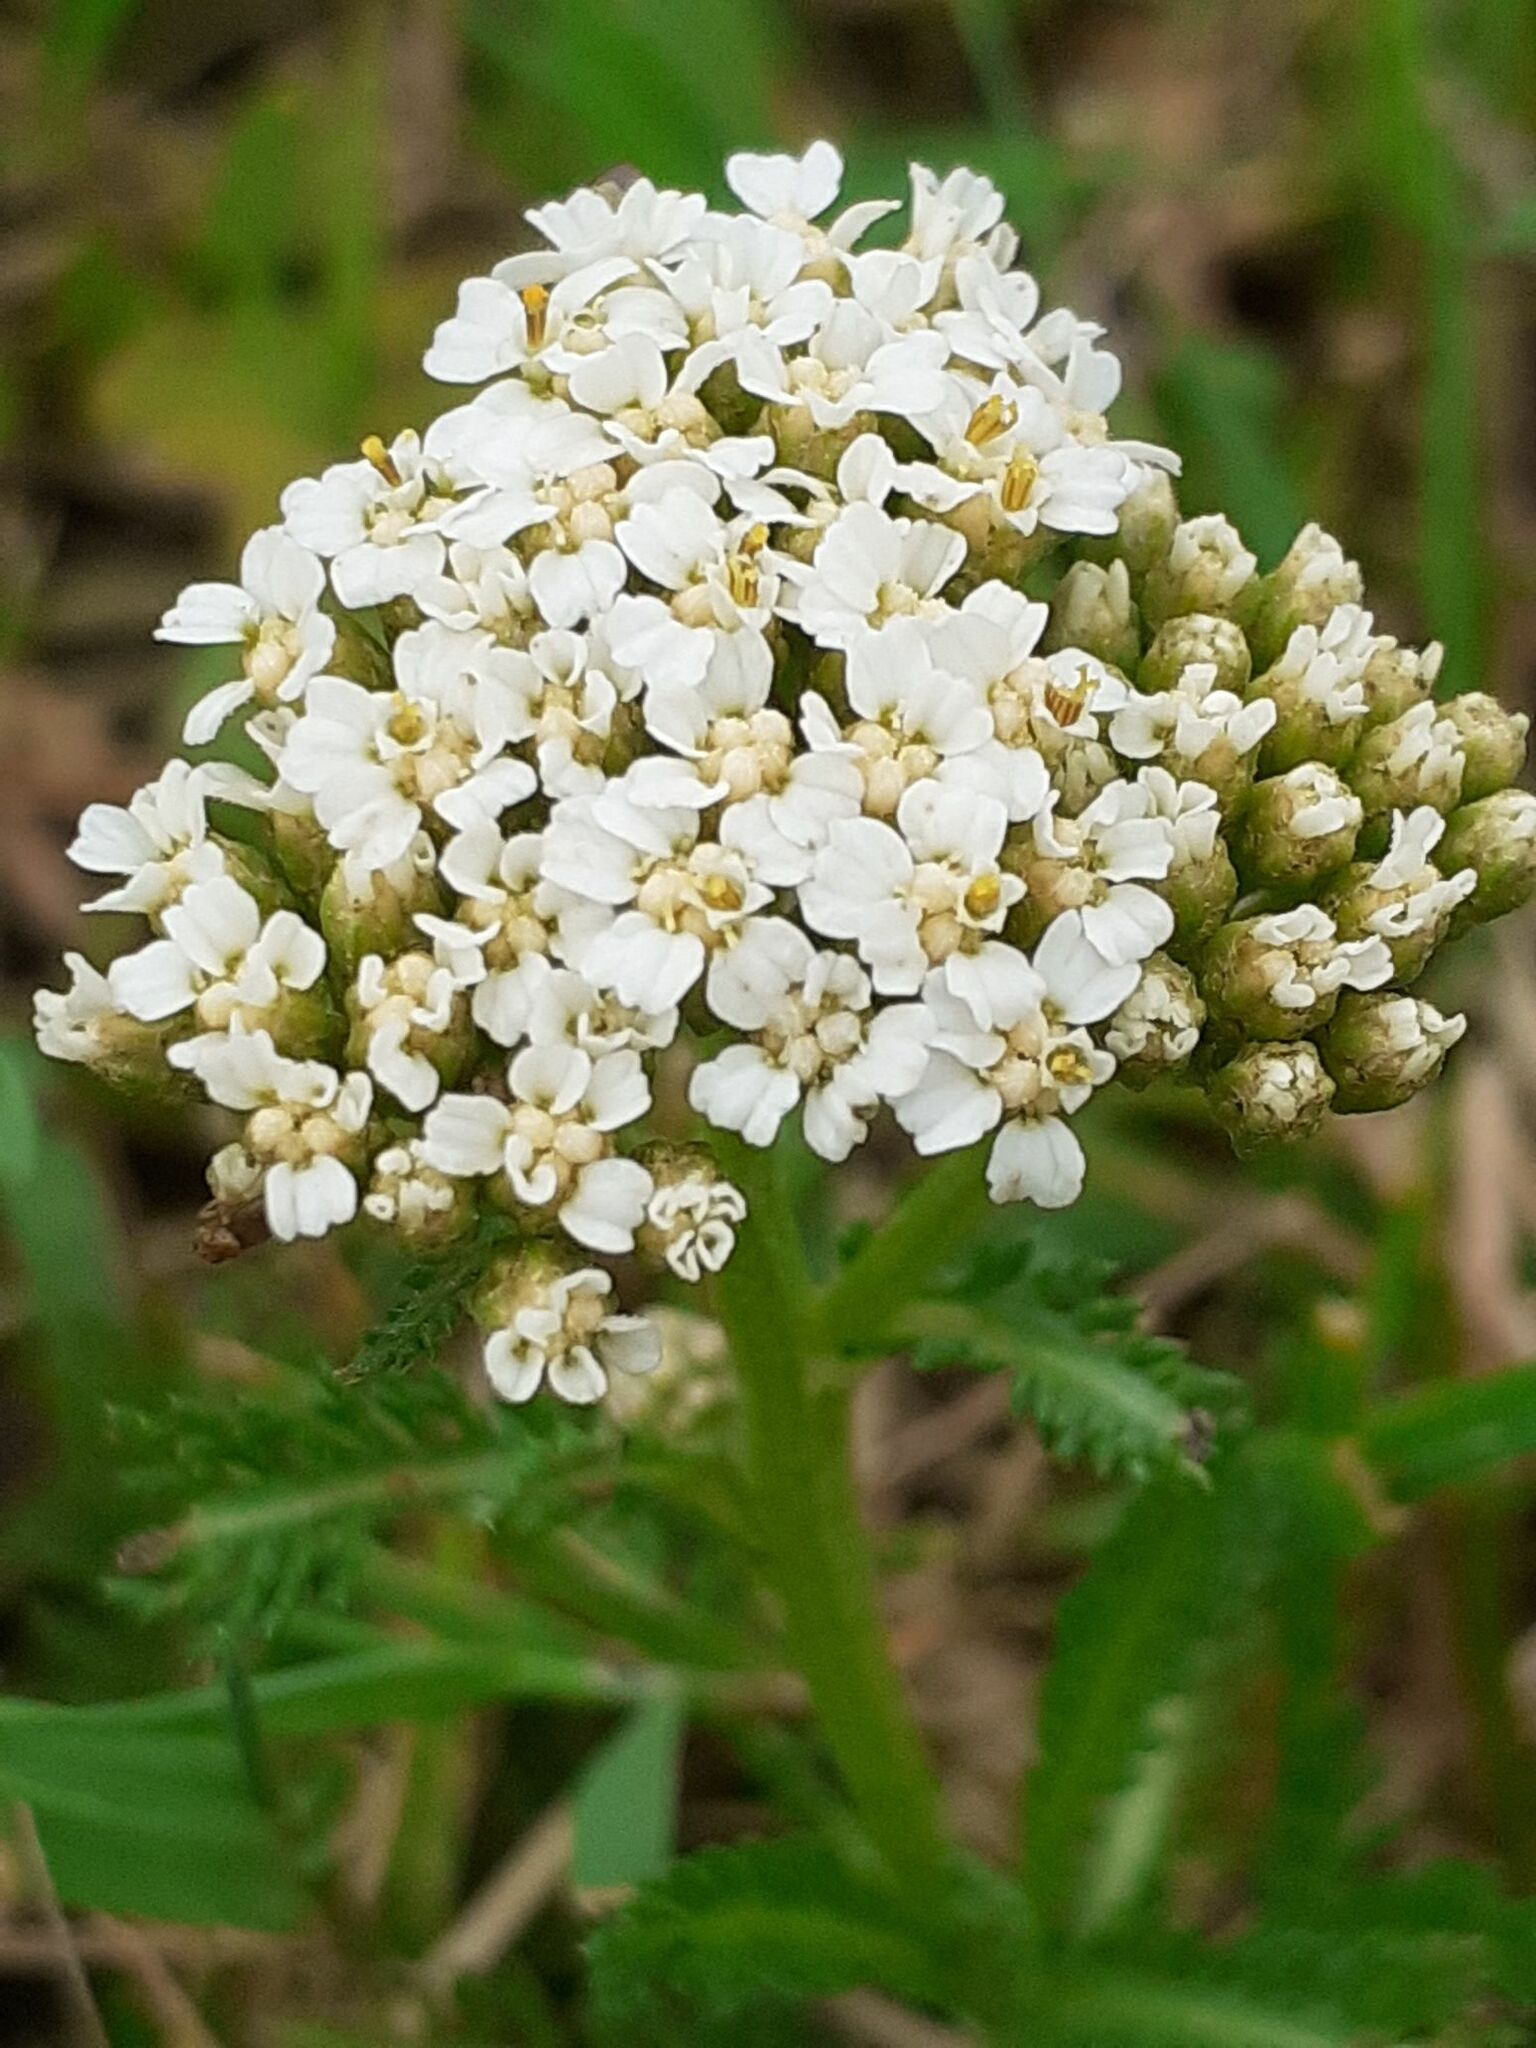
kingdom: Plantae
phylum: Tracheophyta
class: Magnoliopsida
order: Asterales
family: Asteraceae
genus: Achillea
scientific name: Achillea millefolium
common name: Yarrow
